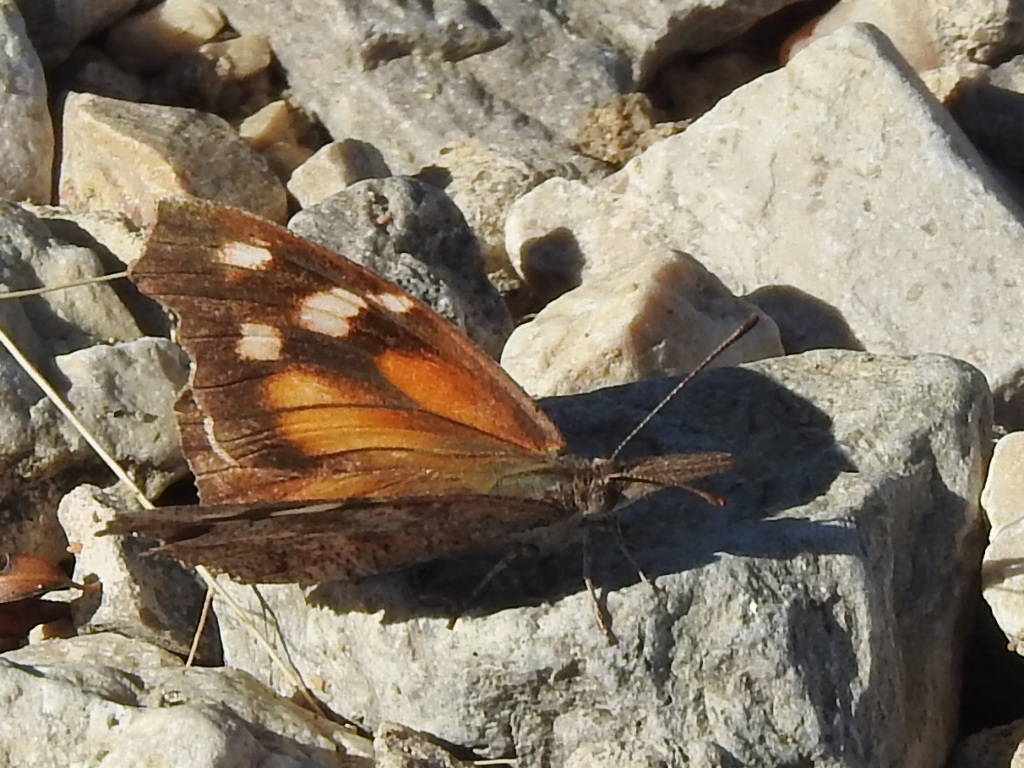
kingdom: Animalia
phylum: Arthropoda
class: Insecta
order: Lepidoptera
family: Nymphalidae
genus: Libytheana
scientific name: Libytheana carinenta
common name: American snout
